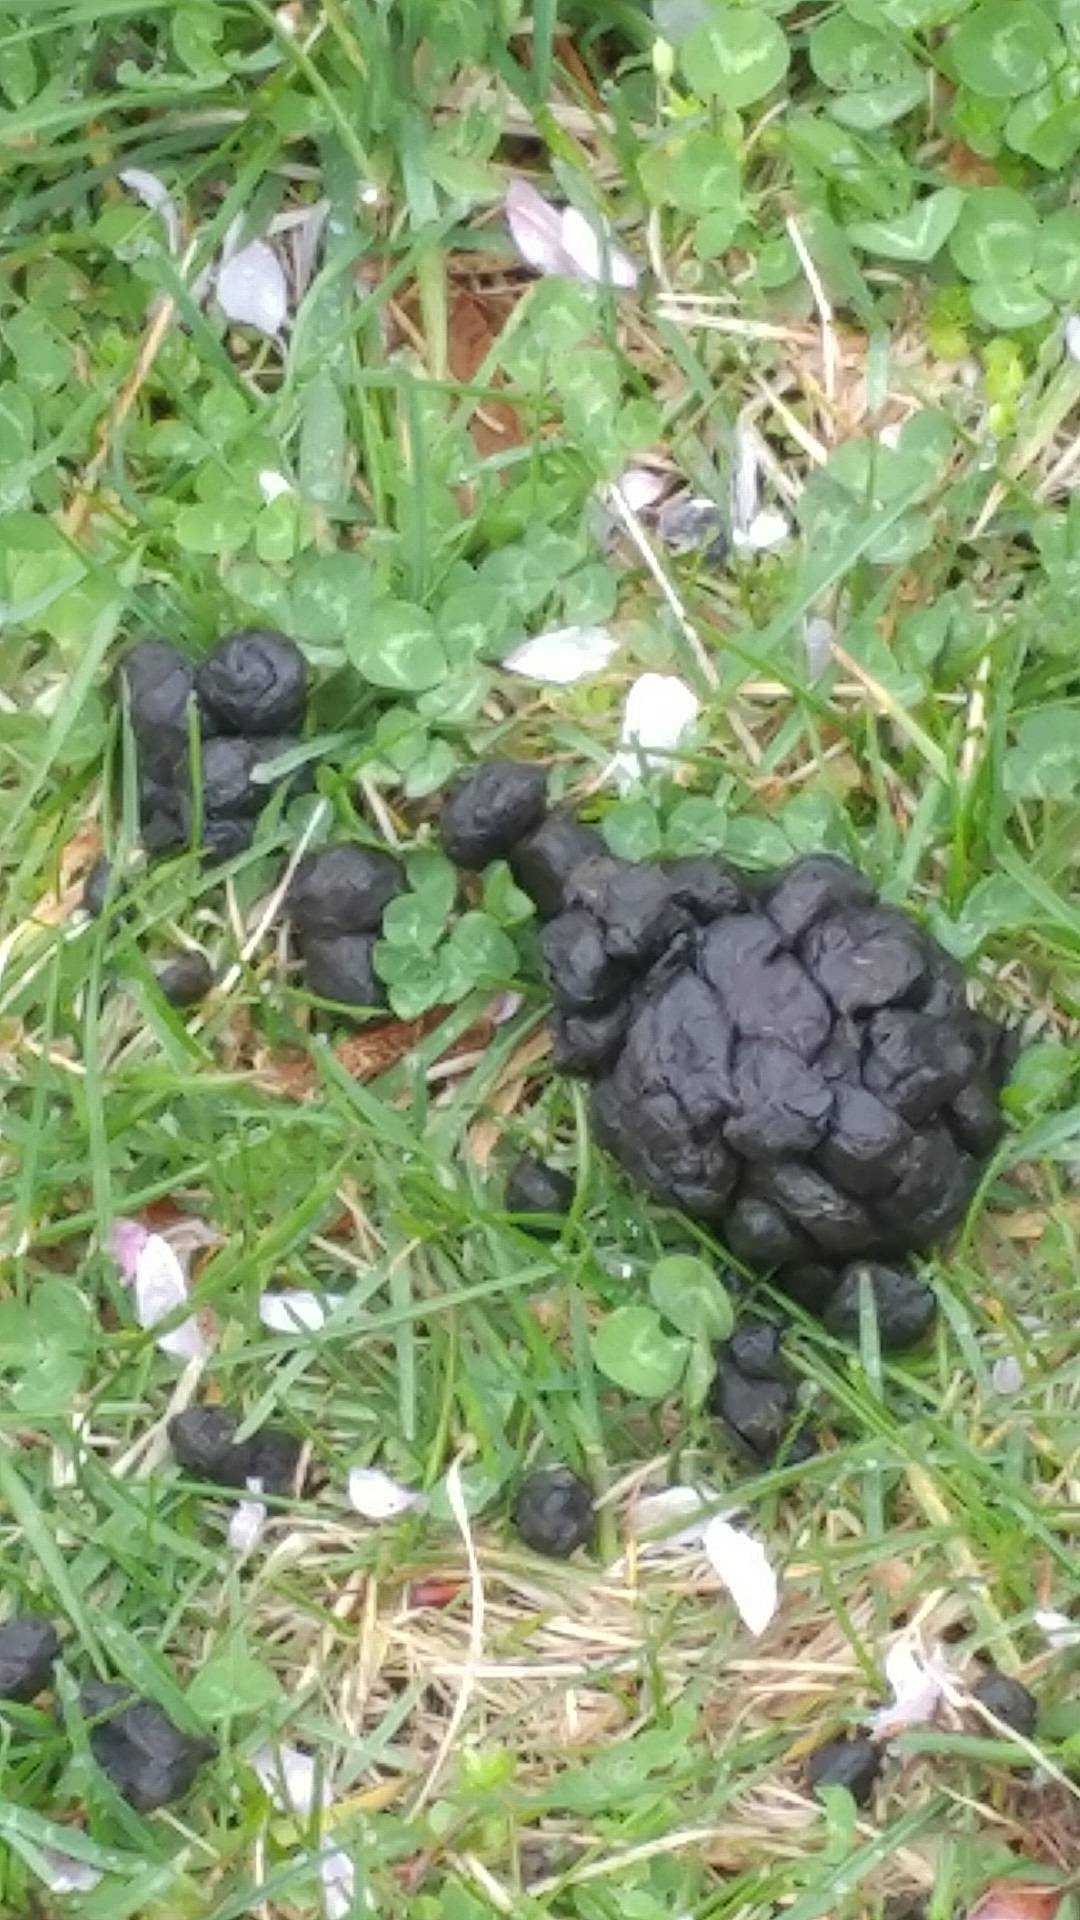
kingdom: Animalia
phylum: Chordata
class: Mammalia
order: Artiodactyla
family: Cervidae
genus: Odocoileus
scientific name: Odocoileus virginianus
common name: White-tailed deer
